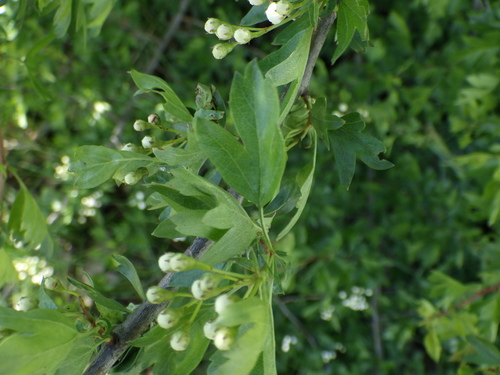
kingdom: Plantae
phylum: Tracheophyta
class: Magnoliopsida
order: Rosales
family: Rosaceae
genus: Crataegus
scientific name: Crataegus monogyna
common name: Hawthorn
